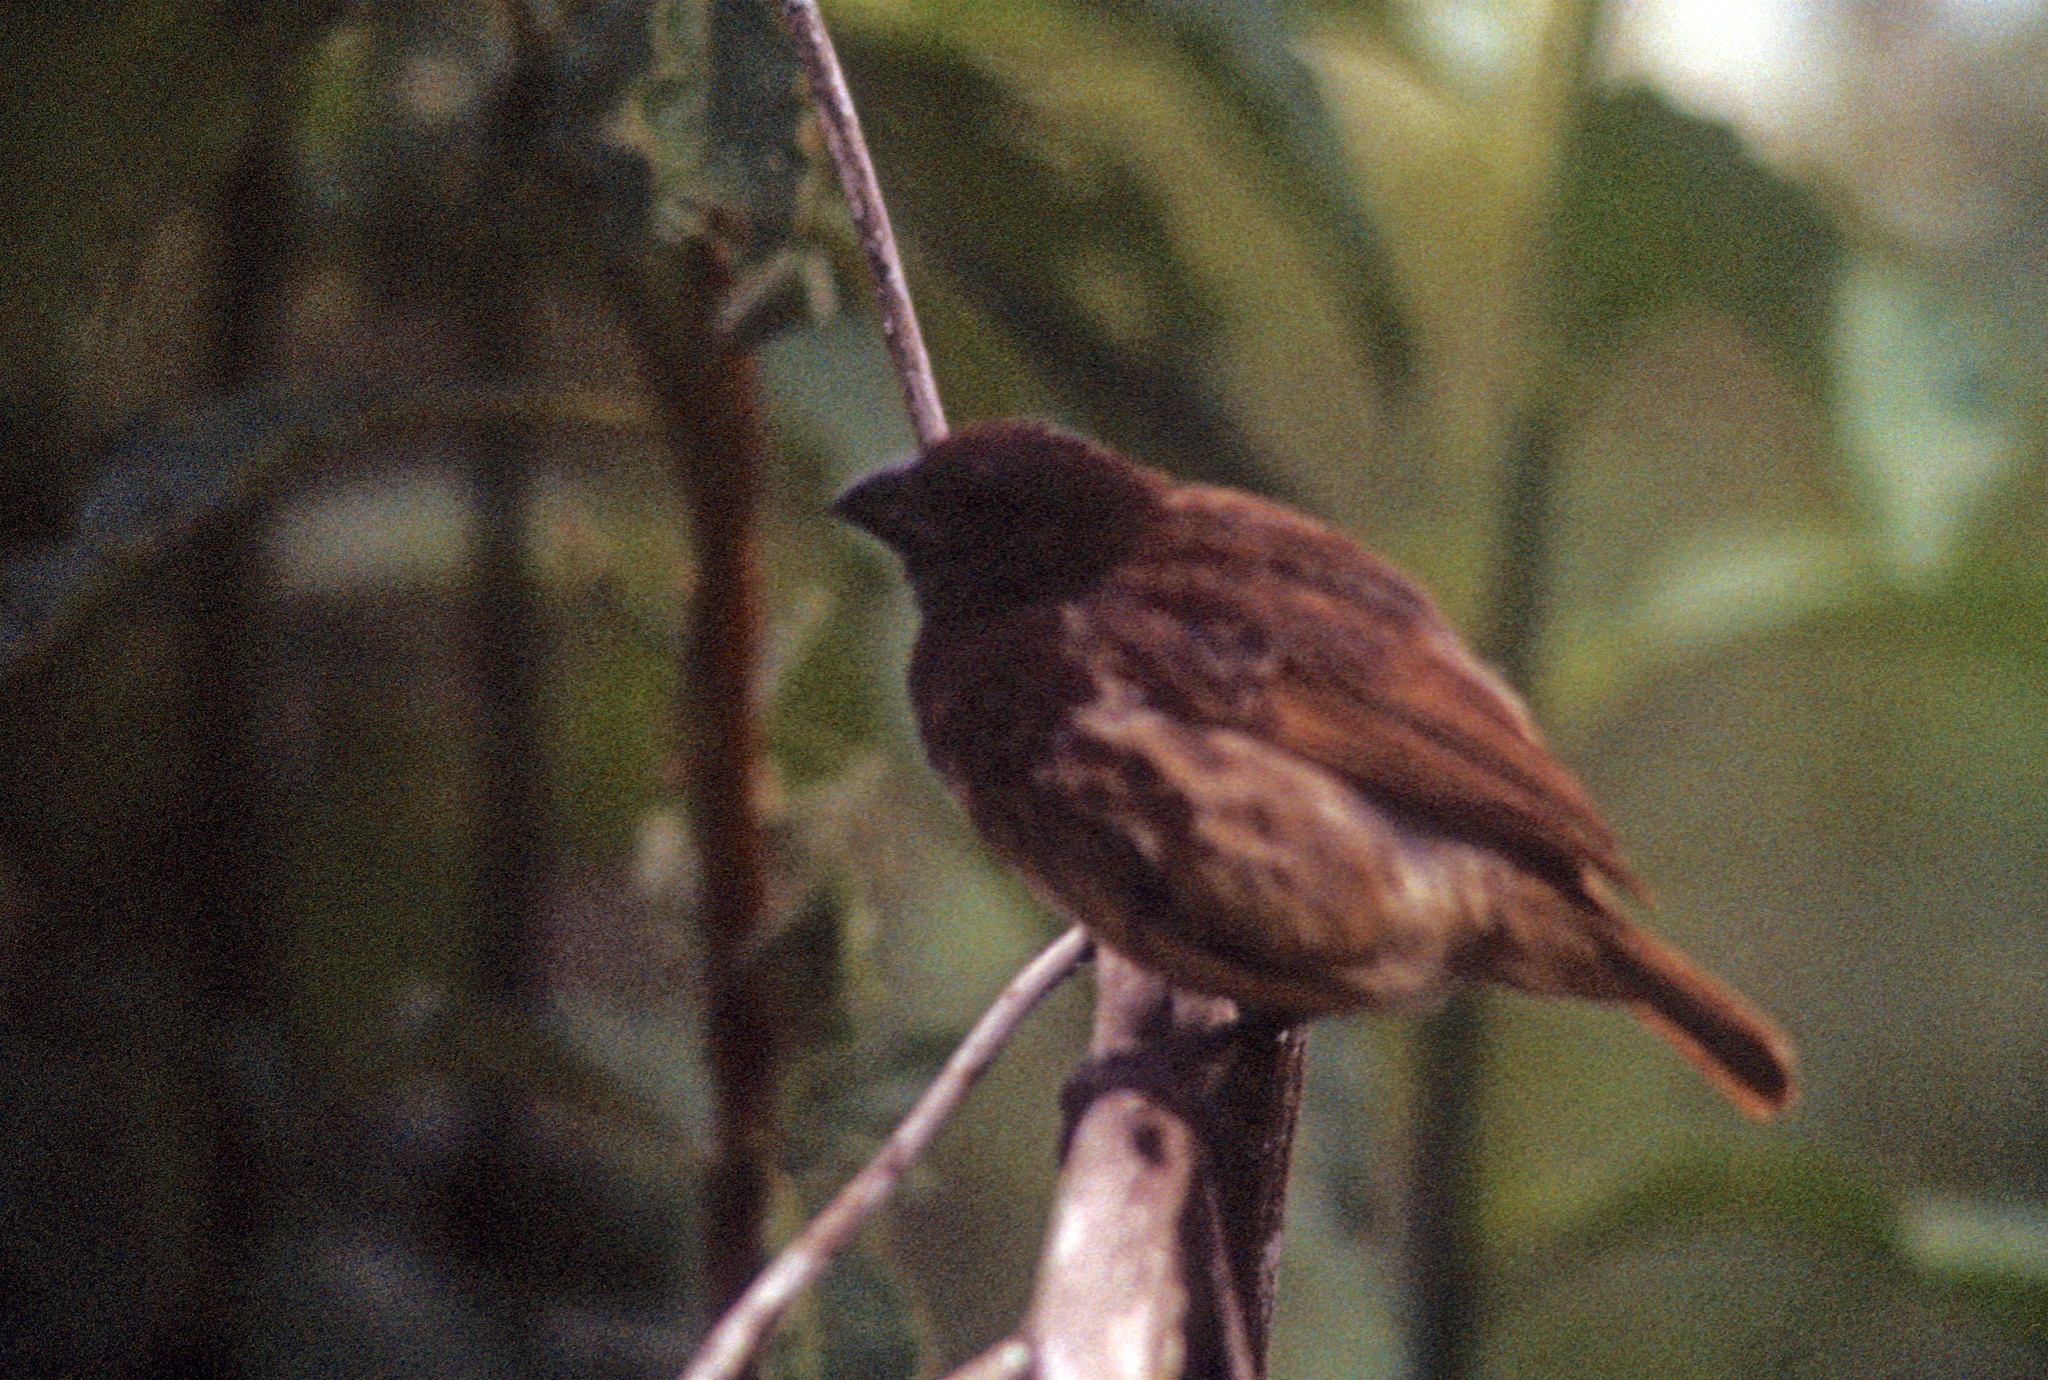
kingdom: Animalia
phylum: Chordata
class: Aves
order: Passeriformes
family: Thraupidae
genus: Platyspiza
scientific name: Platyspiza crassirostris
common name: Vegetarian finch
